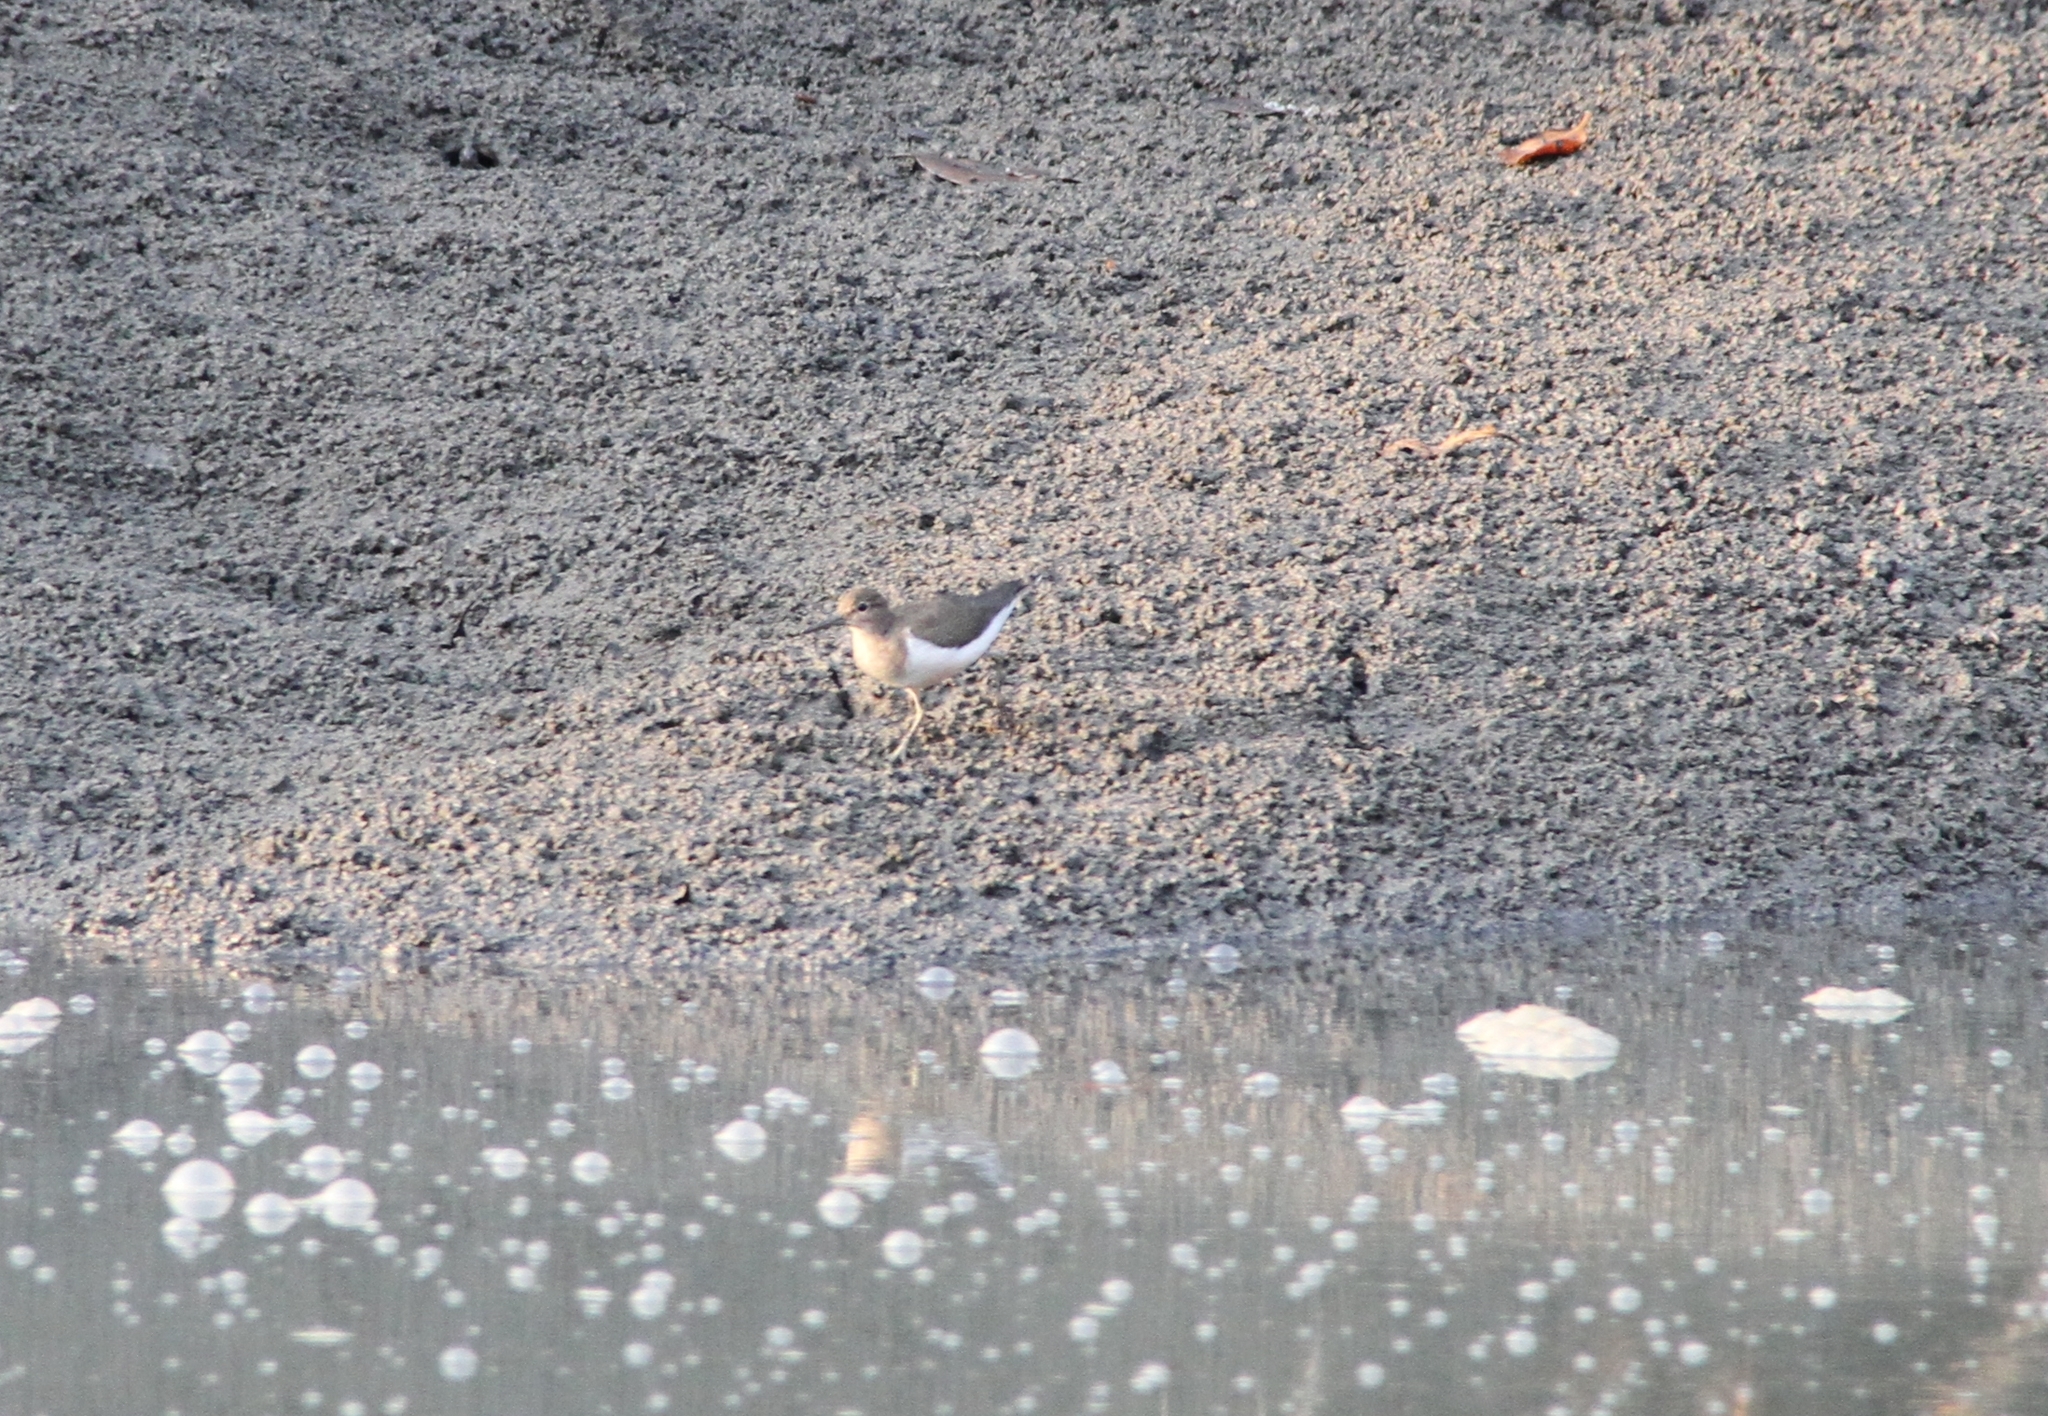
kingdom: Animalia
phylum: Chordata
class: Aves
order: Charadriiformes
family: Scolopacidae
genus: Actitis
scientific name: Actitis hypoleucos
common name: Common sandpiper
